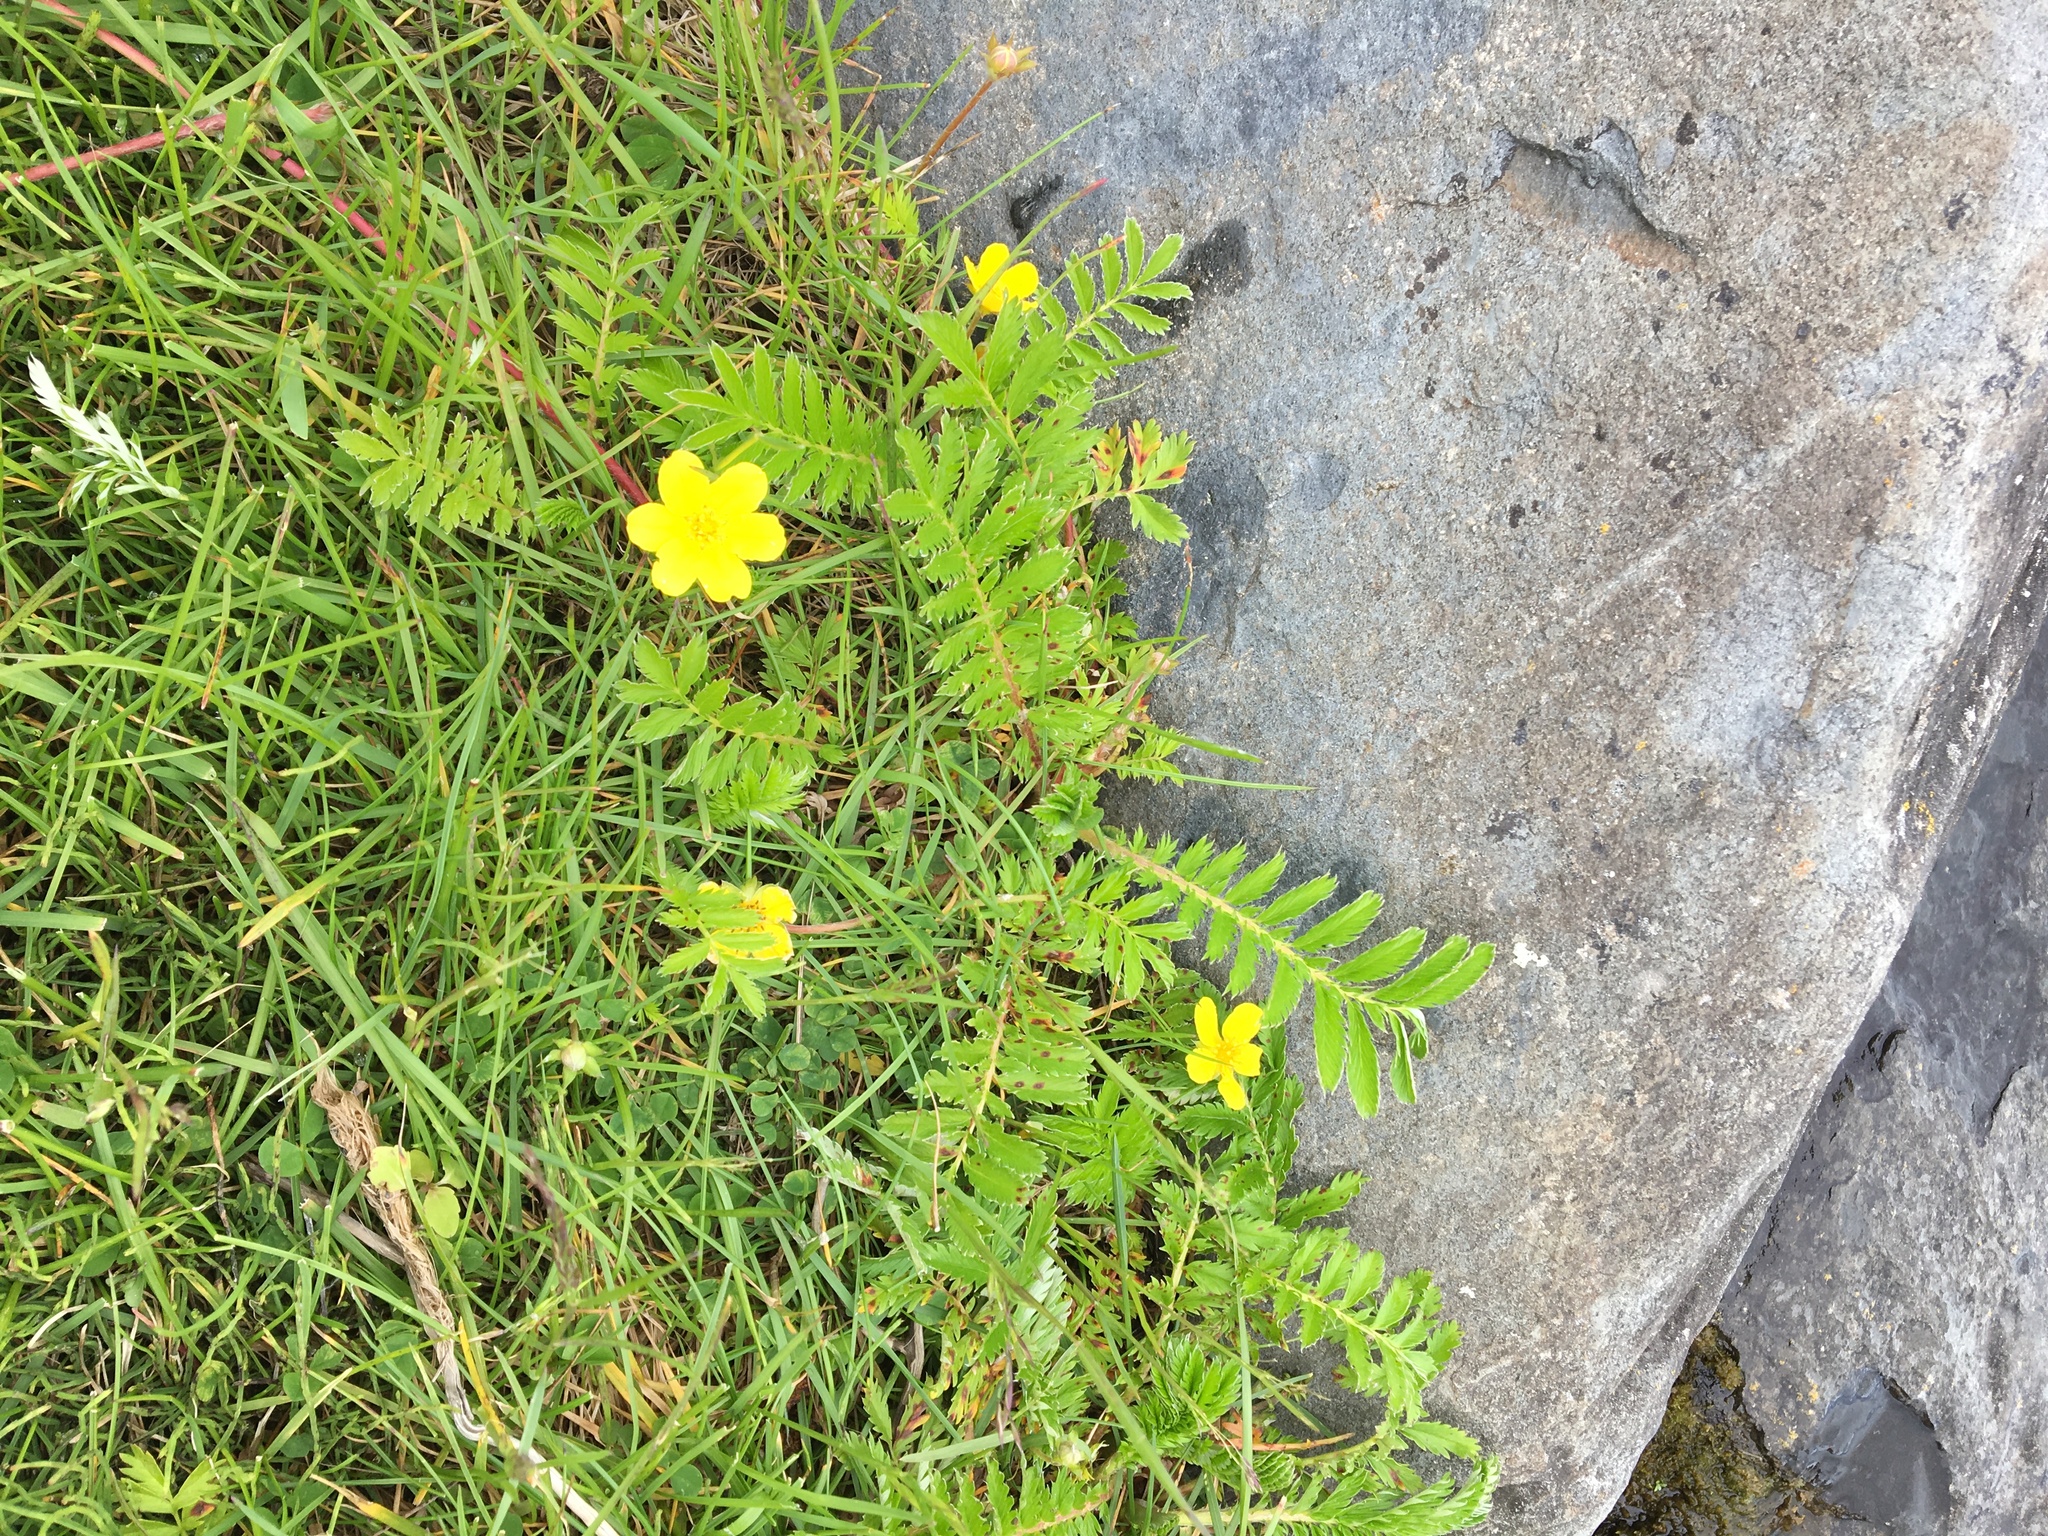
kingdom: Plantae
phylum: Tracheophyta
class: Magnoliopsida
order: Rosales
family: Rosaceae
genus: Argentina
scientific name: Argentina anserina
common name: Common silverweed
